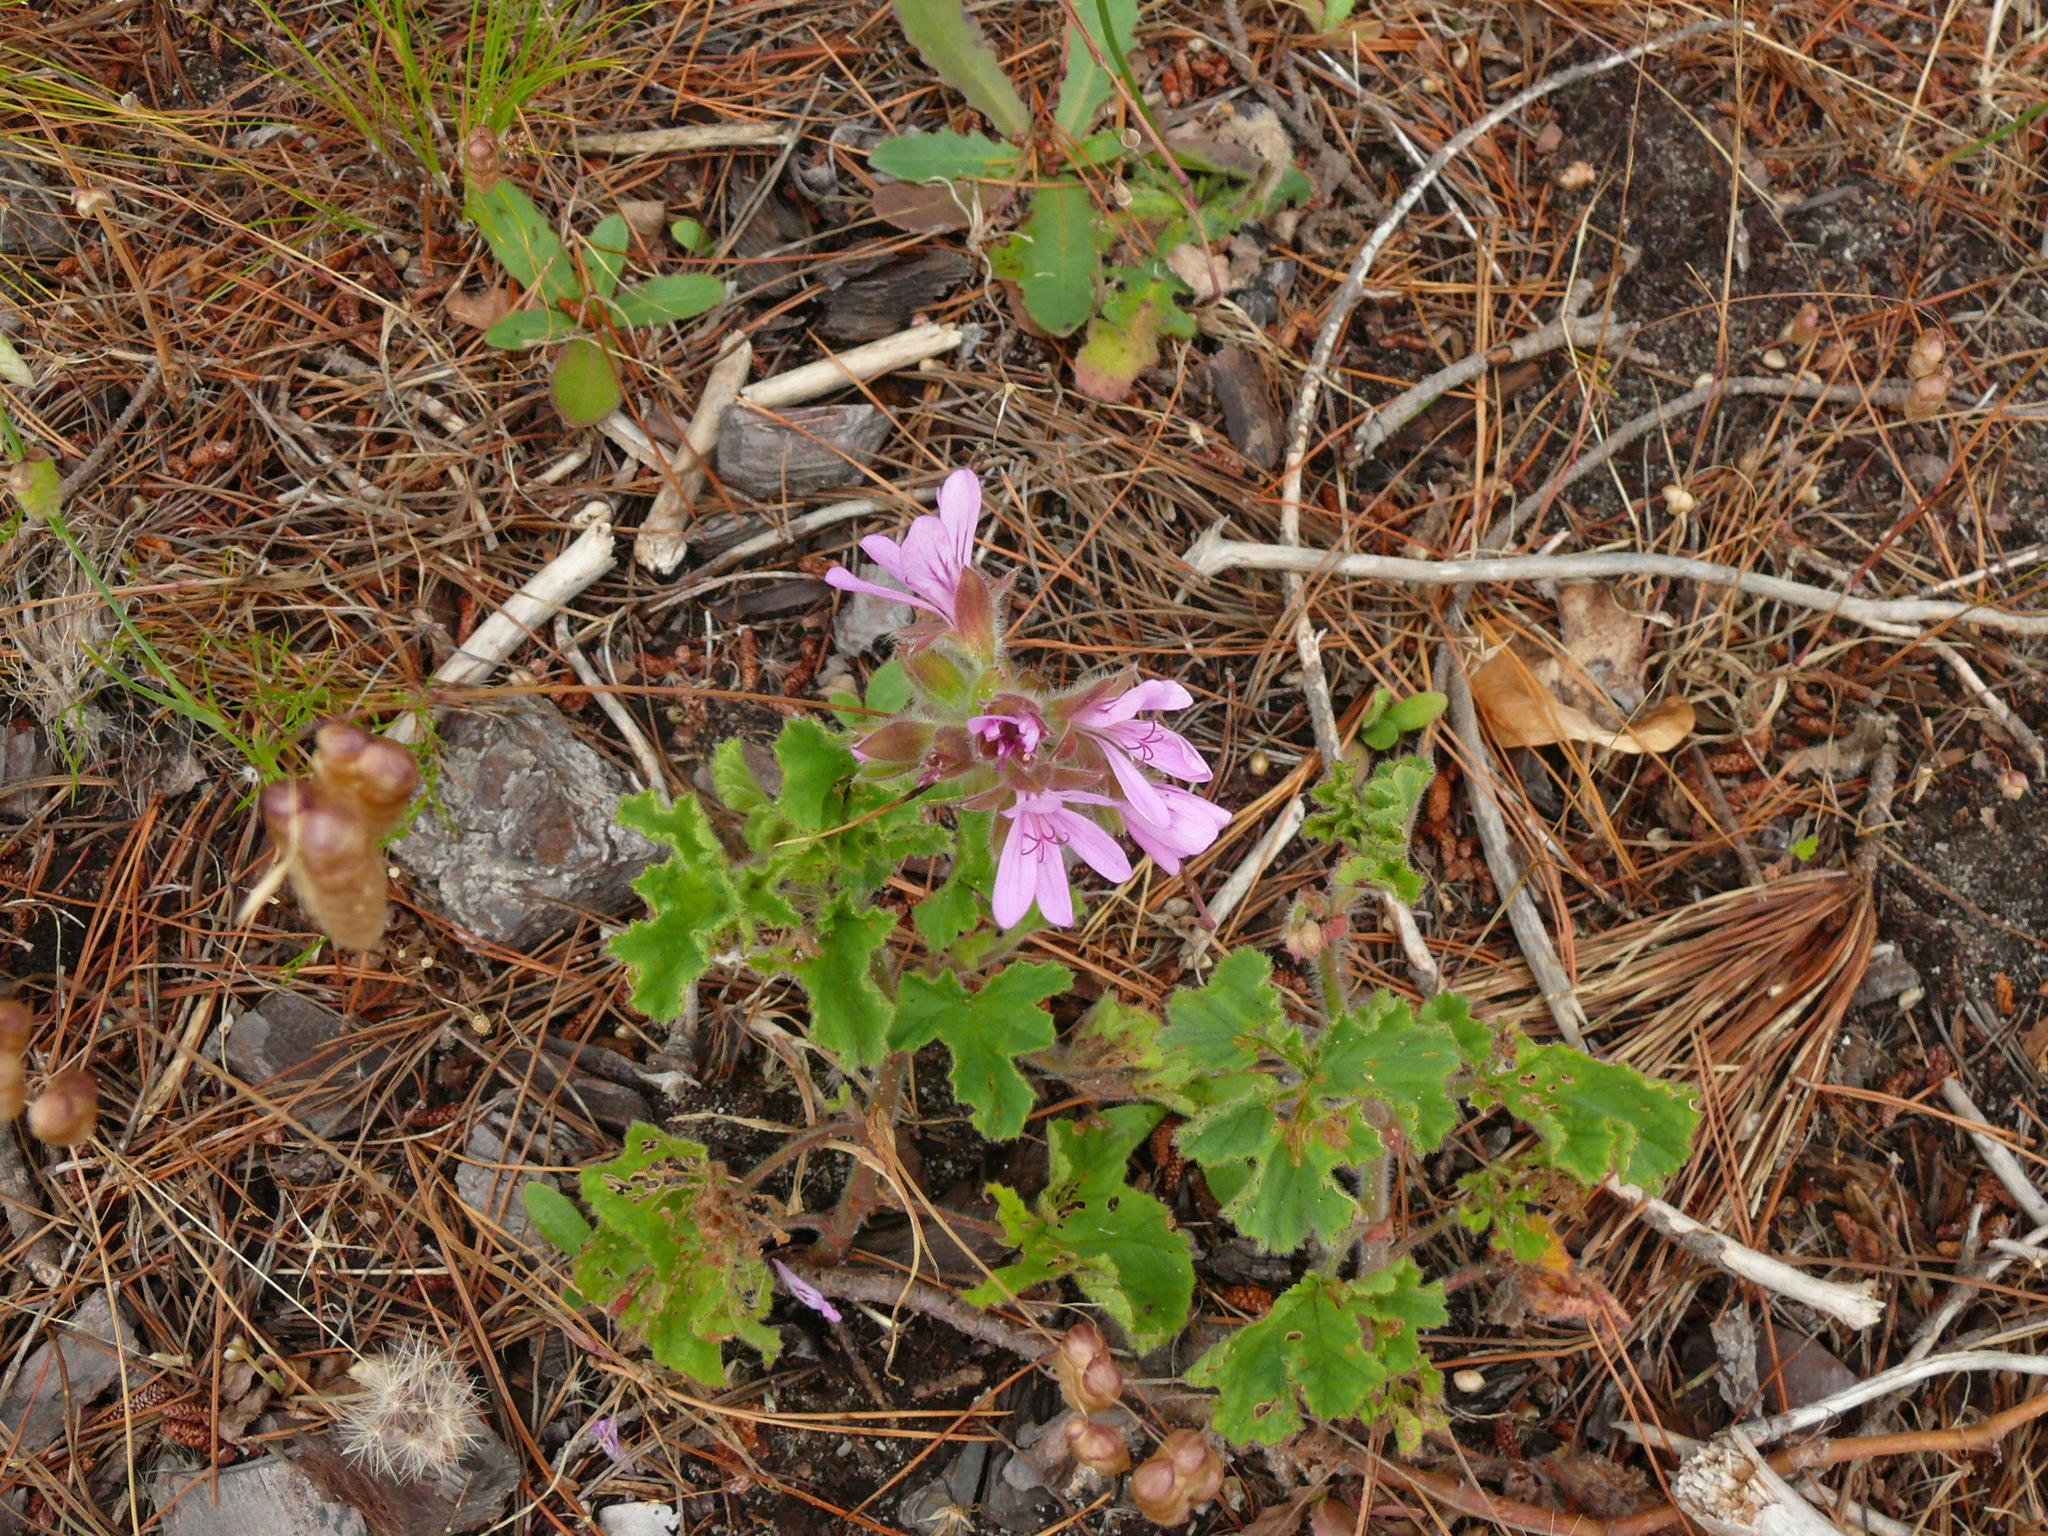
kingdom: Plantae
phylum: Tracheophyta
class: Magnoliopsida
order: Geraniales
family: Geraniaceae
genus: Pelargonium
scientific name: Pelargonium capitatum
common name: Rose scented geranium
